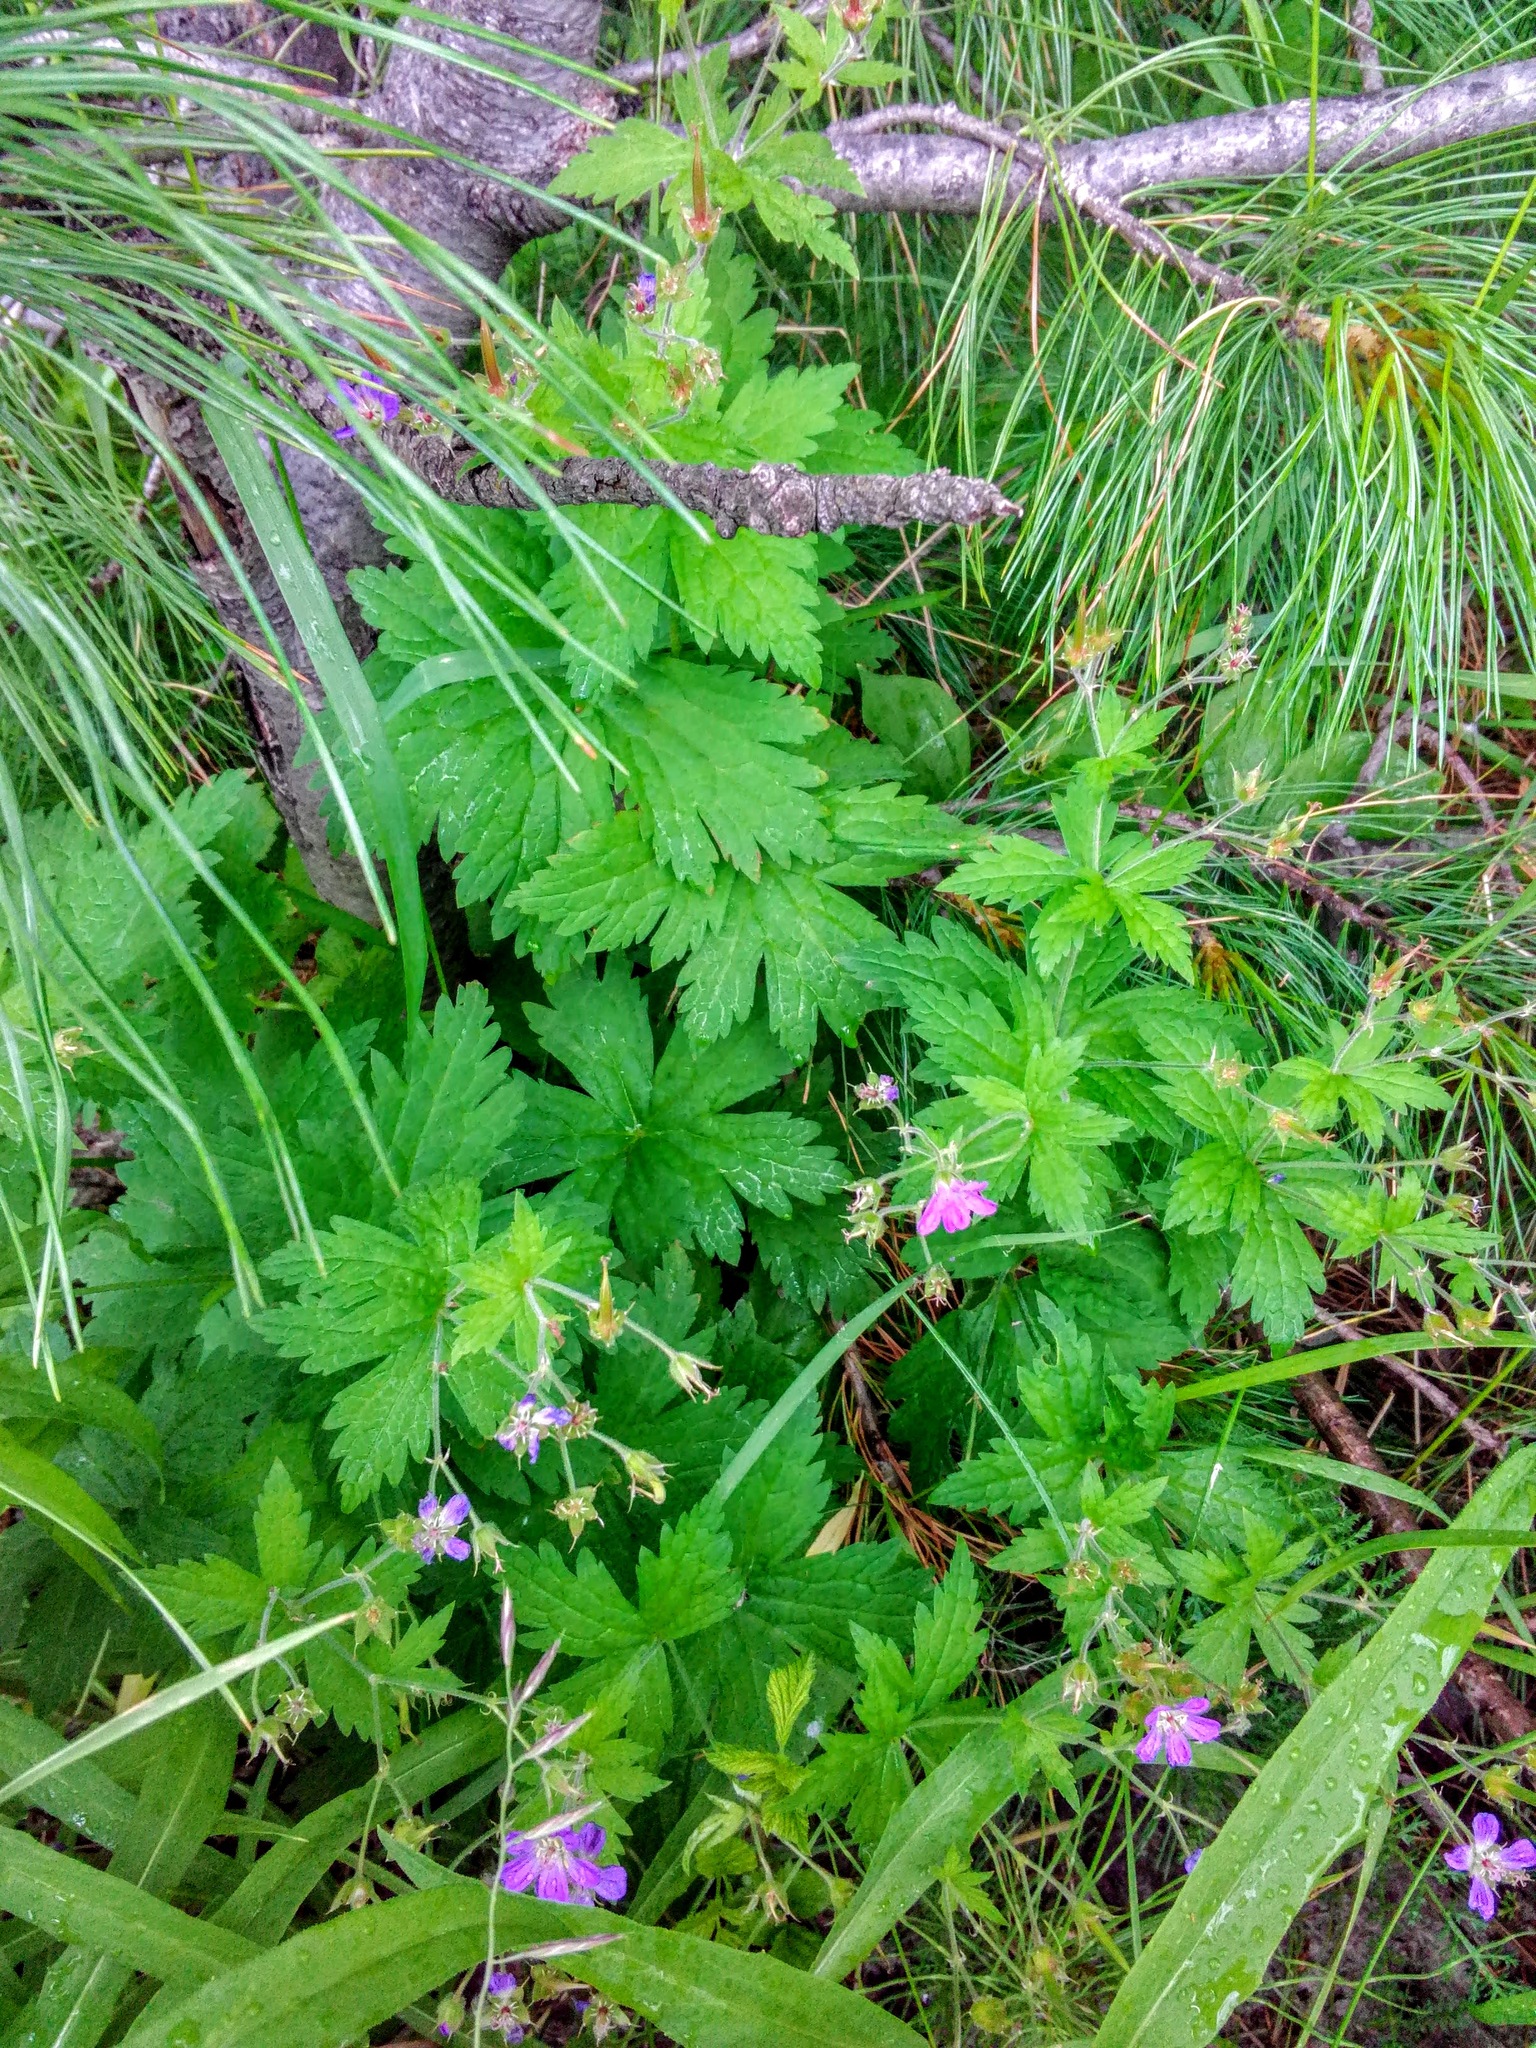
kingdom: Plantae
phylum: Tracheophyta
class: Magnoliopsida
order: Geraniales
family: Geraniaceae
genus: Geranium
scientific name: Geranium sylvaticum
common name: Wood crane's-bill
